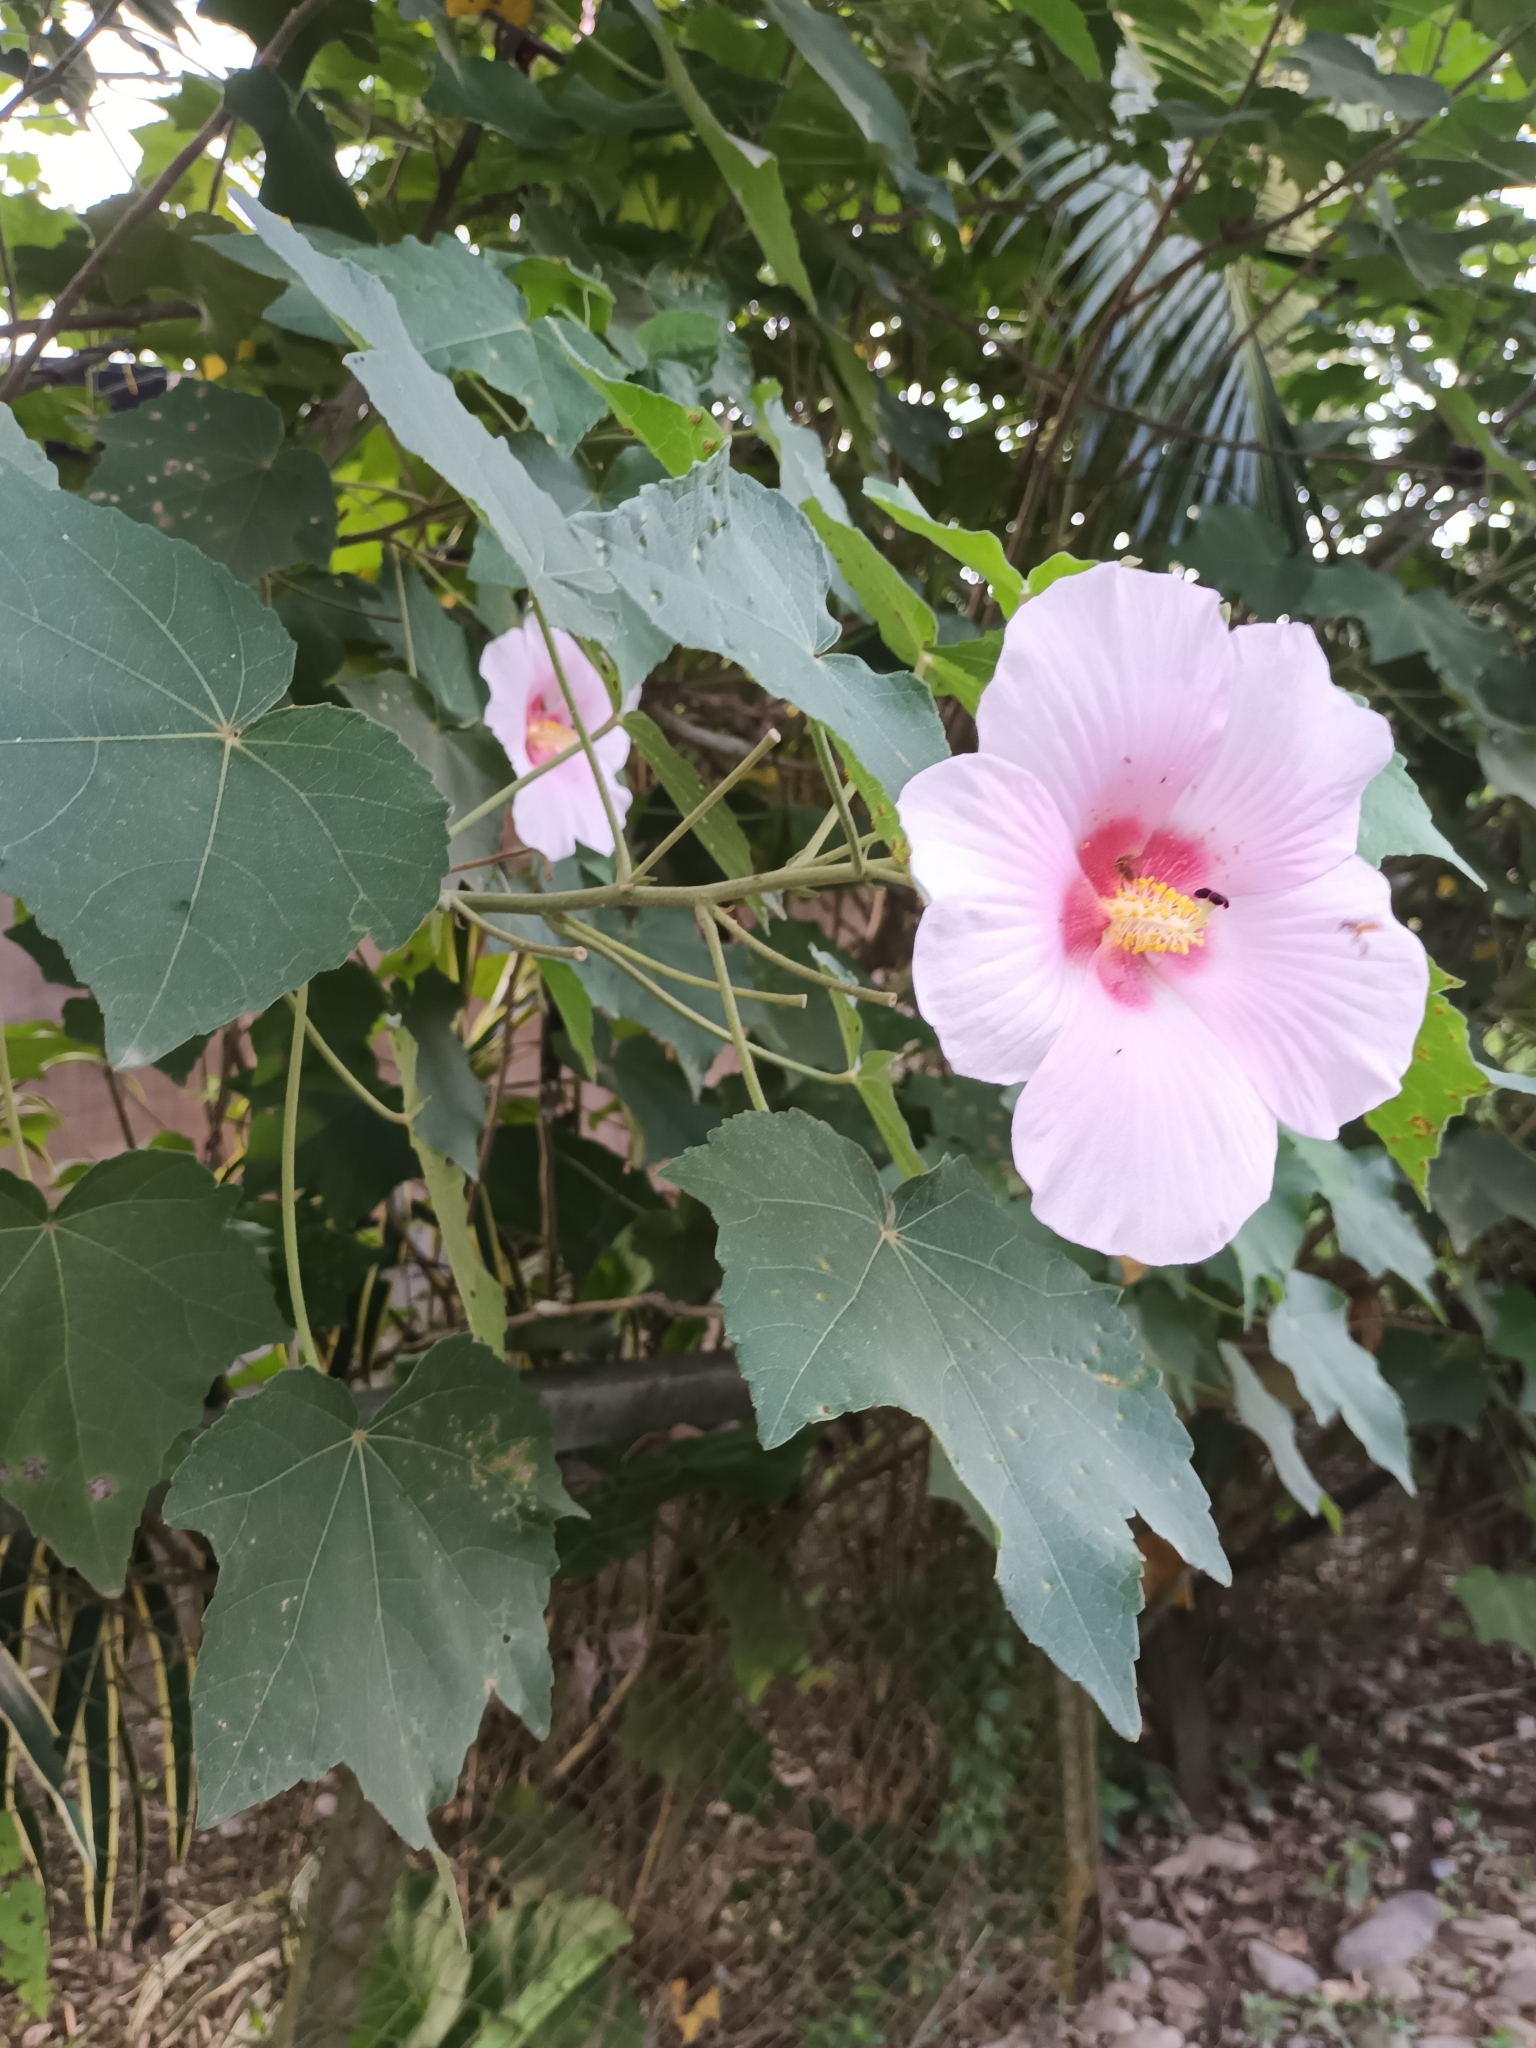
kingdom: Plantae
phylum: Tracheophyta
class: Magnoliopsida
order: Malvales
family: Malvaceae
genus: Hibiscus
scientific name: Hibiscus mutabilis
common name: Dixie rosemallow
